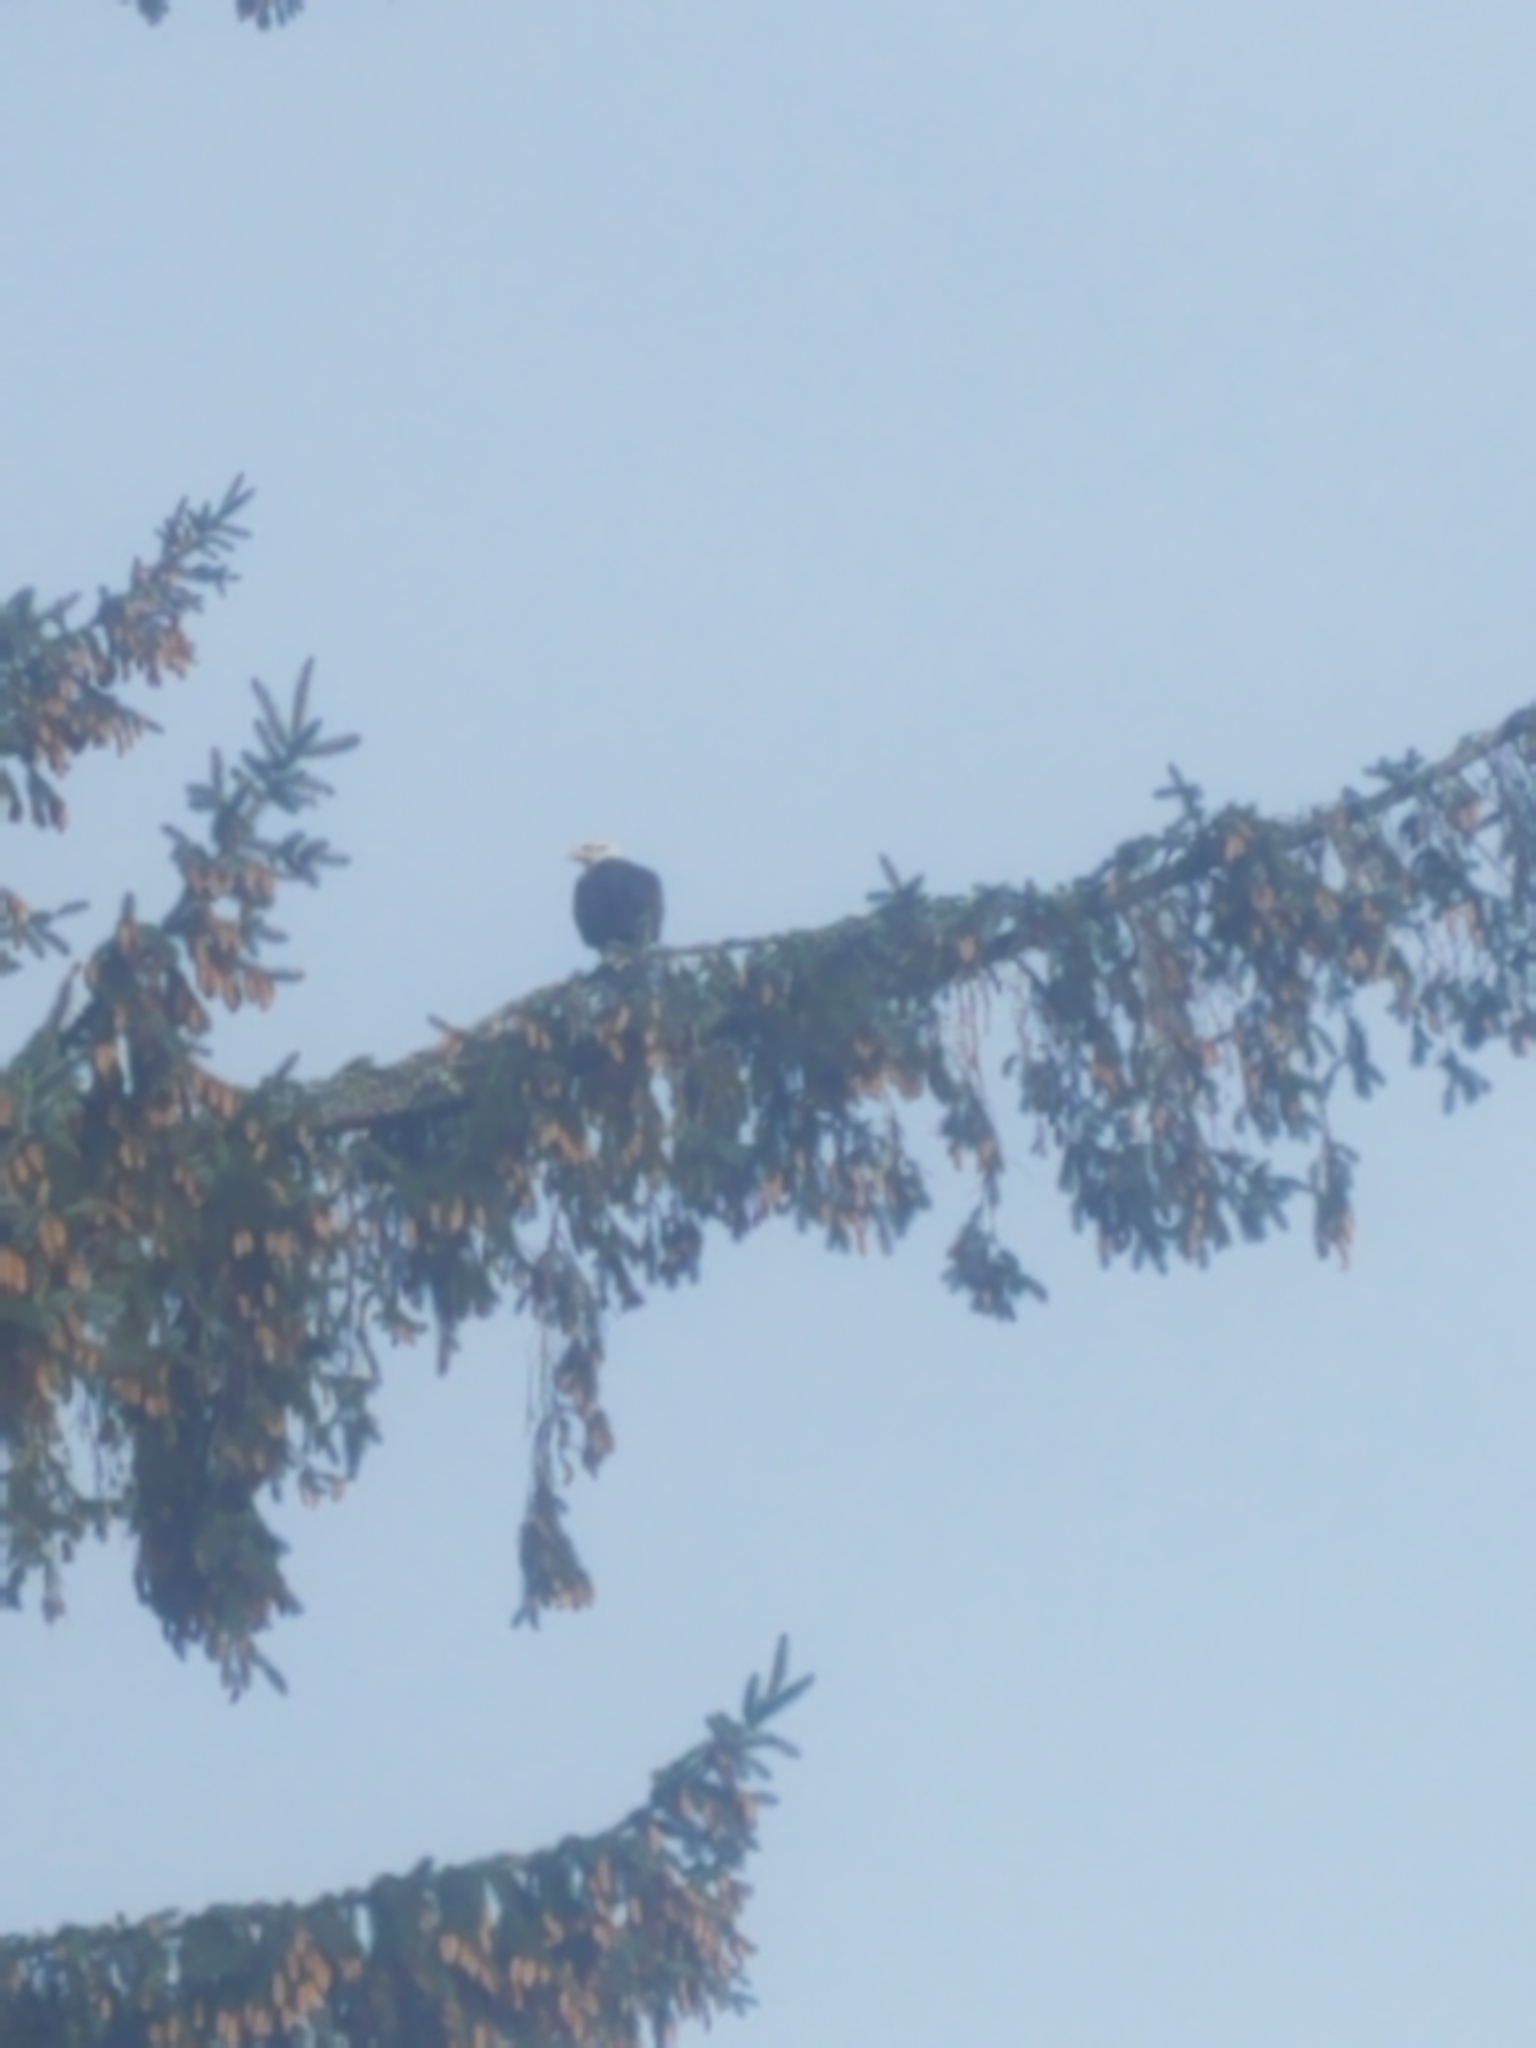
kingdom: Animalia
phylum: Chordata
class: Aves
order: Accipitriformes
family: Accipitridae
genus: Haliaeetus
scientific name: Haliaeetus leucocephalus
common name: Bald eagle
